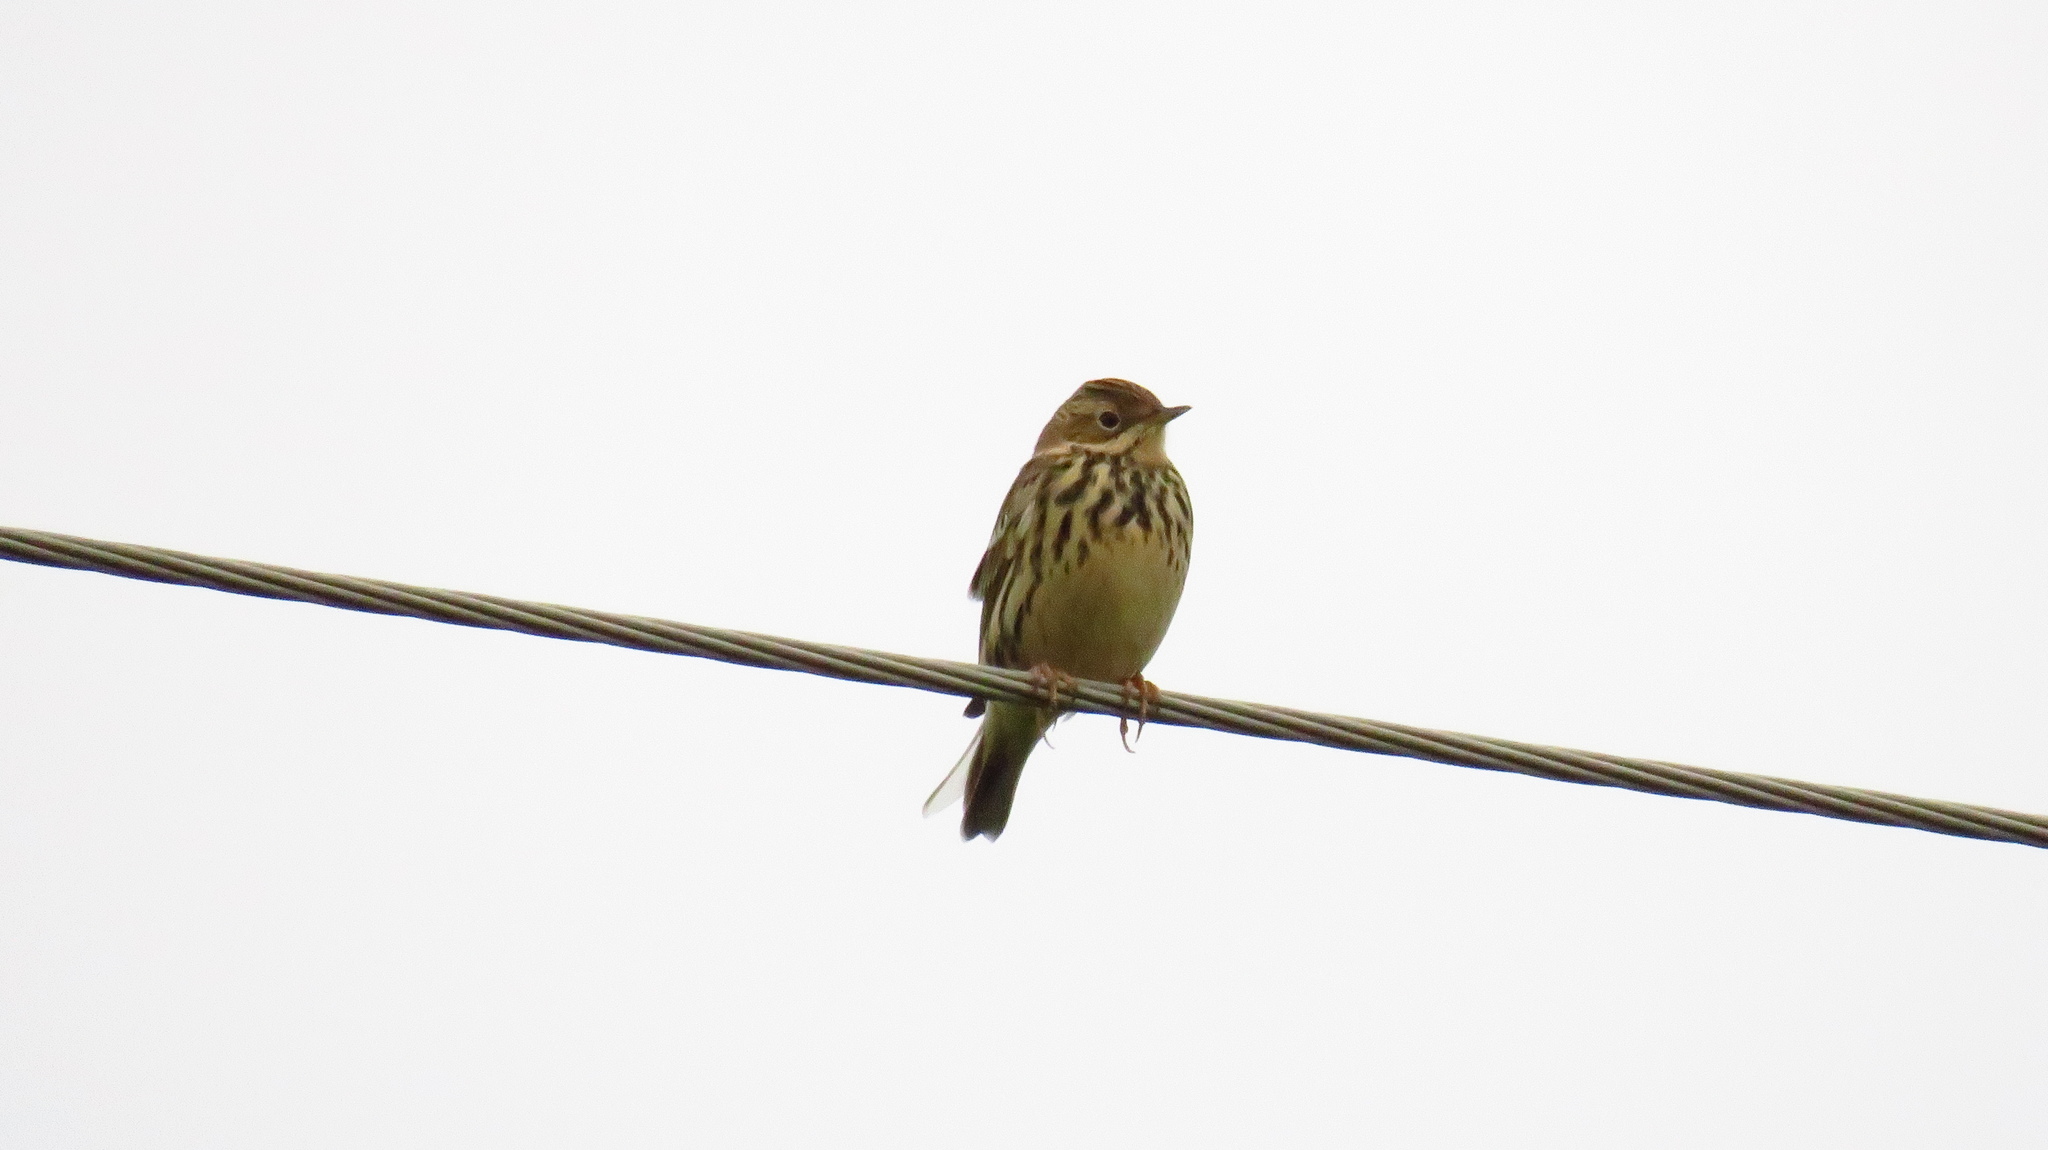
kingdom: Animalia
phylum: Chordata
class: Aves
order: Passeriformes
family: Motacillidae
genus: Anthus
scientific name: Anthus cervinus
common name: Red-throated pipit
